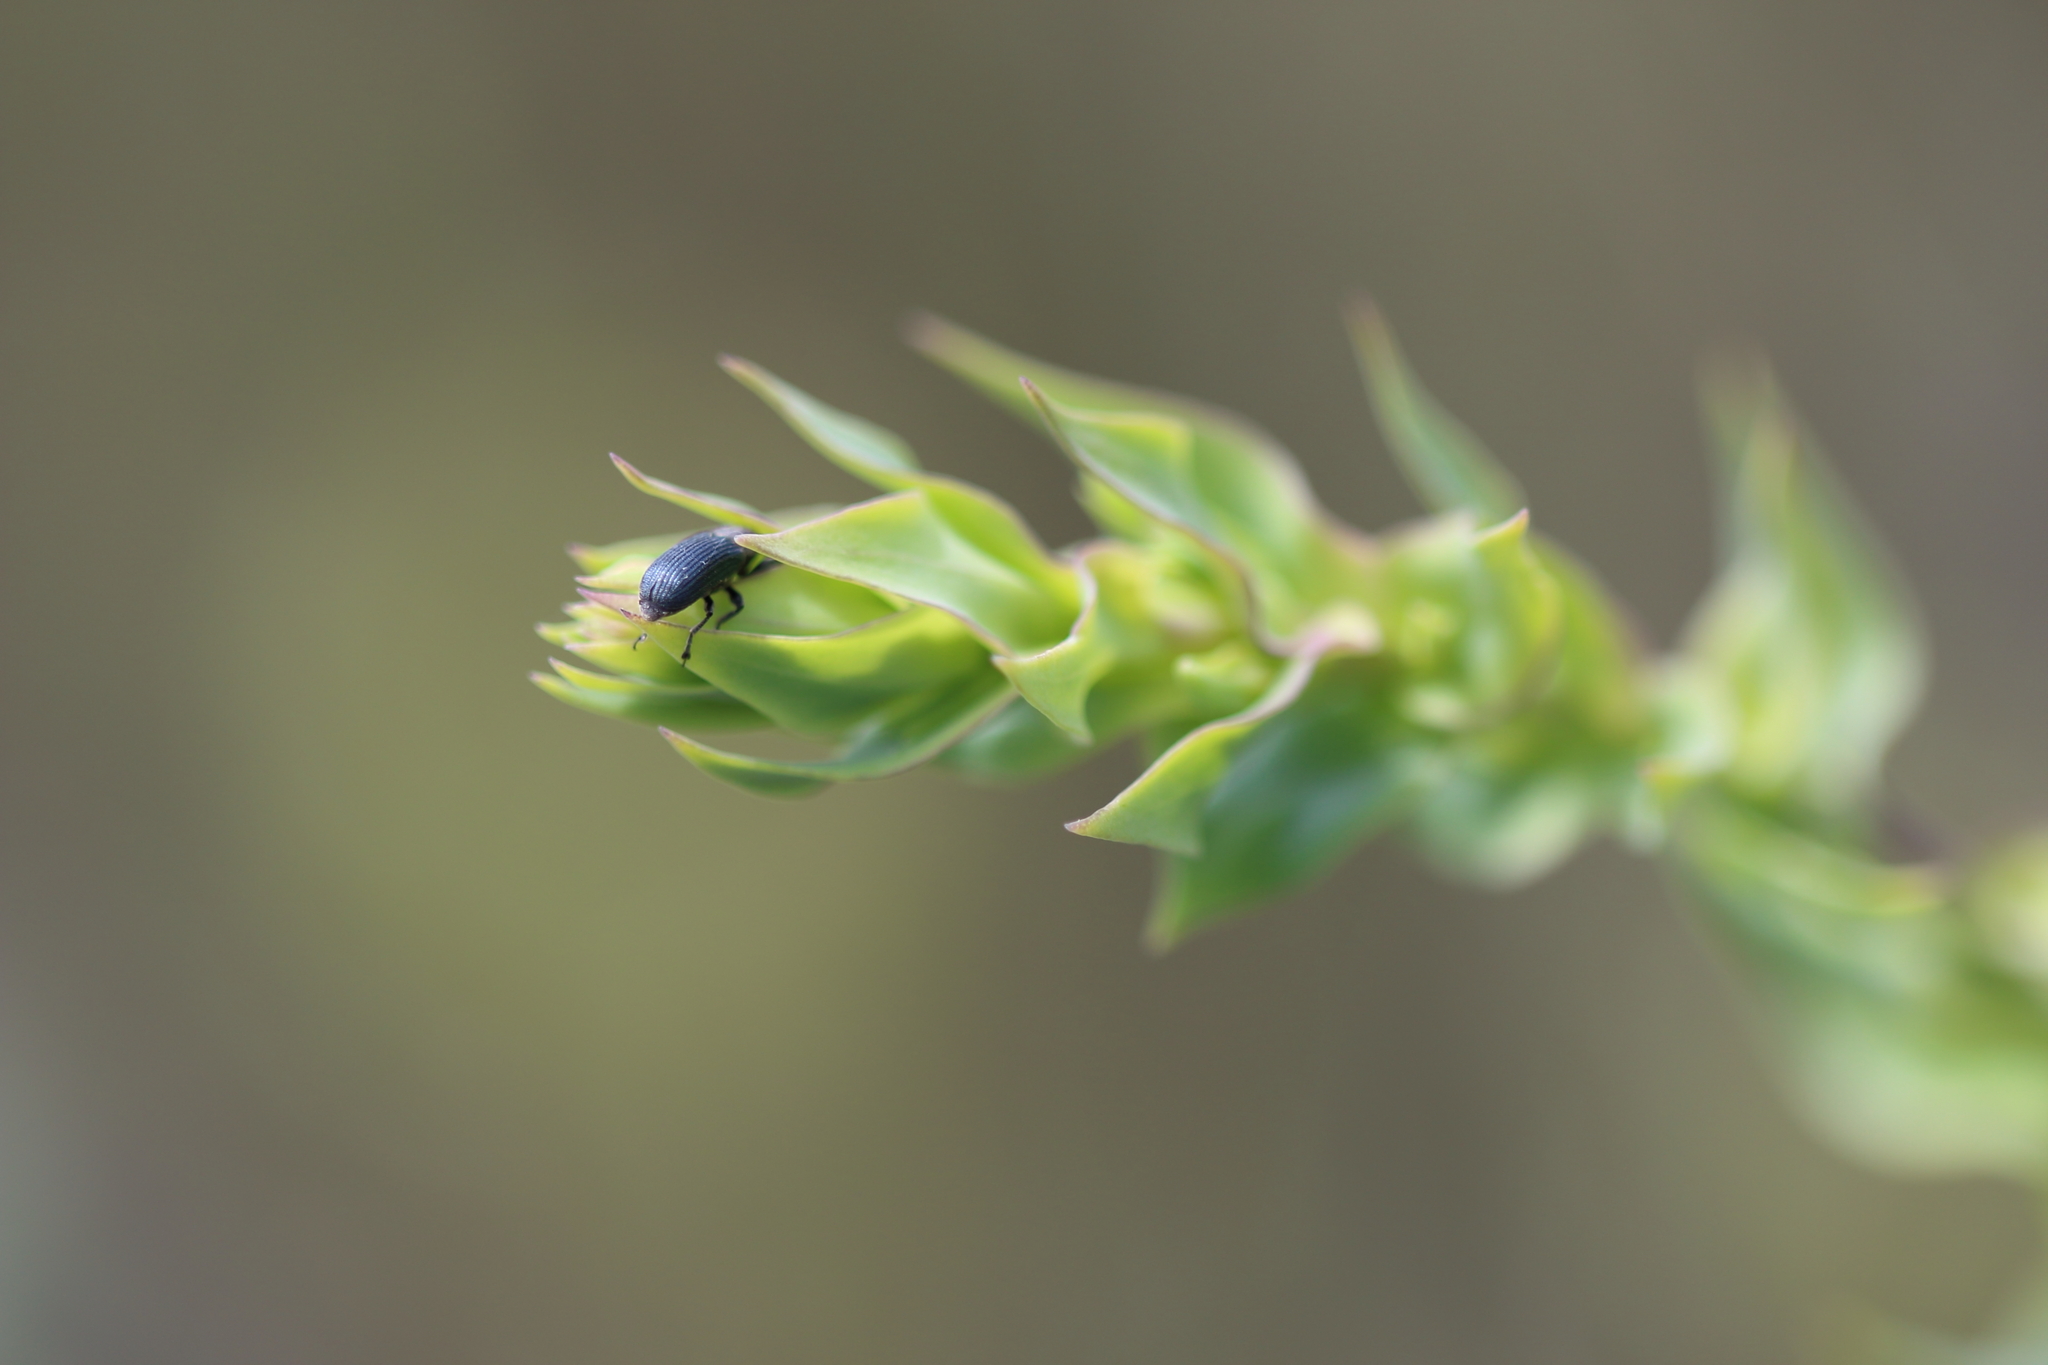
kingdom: Animalia
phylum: Arthropoda
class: Insecta
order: Coleoptera
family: Curculionidae
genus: Mecinus
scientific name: Mecinus janthiniformis
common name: Dalmatian toadflax stem weevil
